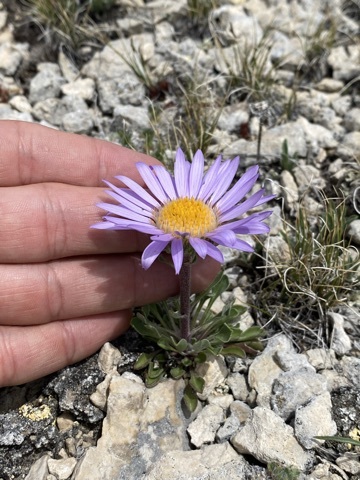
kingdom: Plantae
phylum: Tracheophyta
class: Magnoliopsida
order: Asterales
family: Asteraceae
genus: Townsendia
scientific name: Townsendia parryi
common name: Parry's townsend daisy
